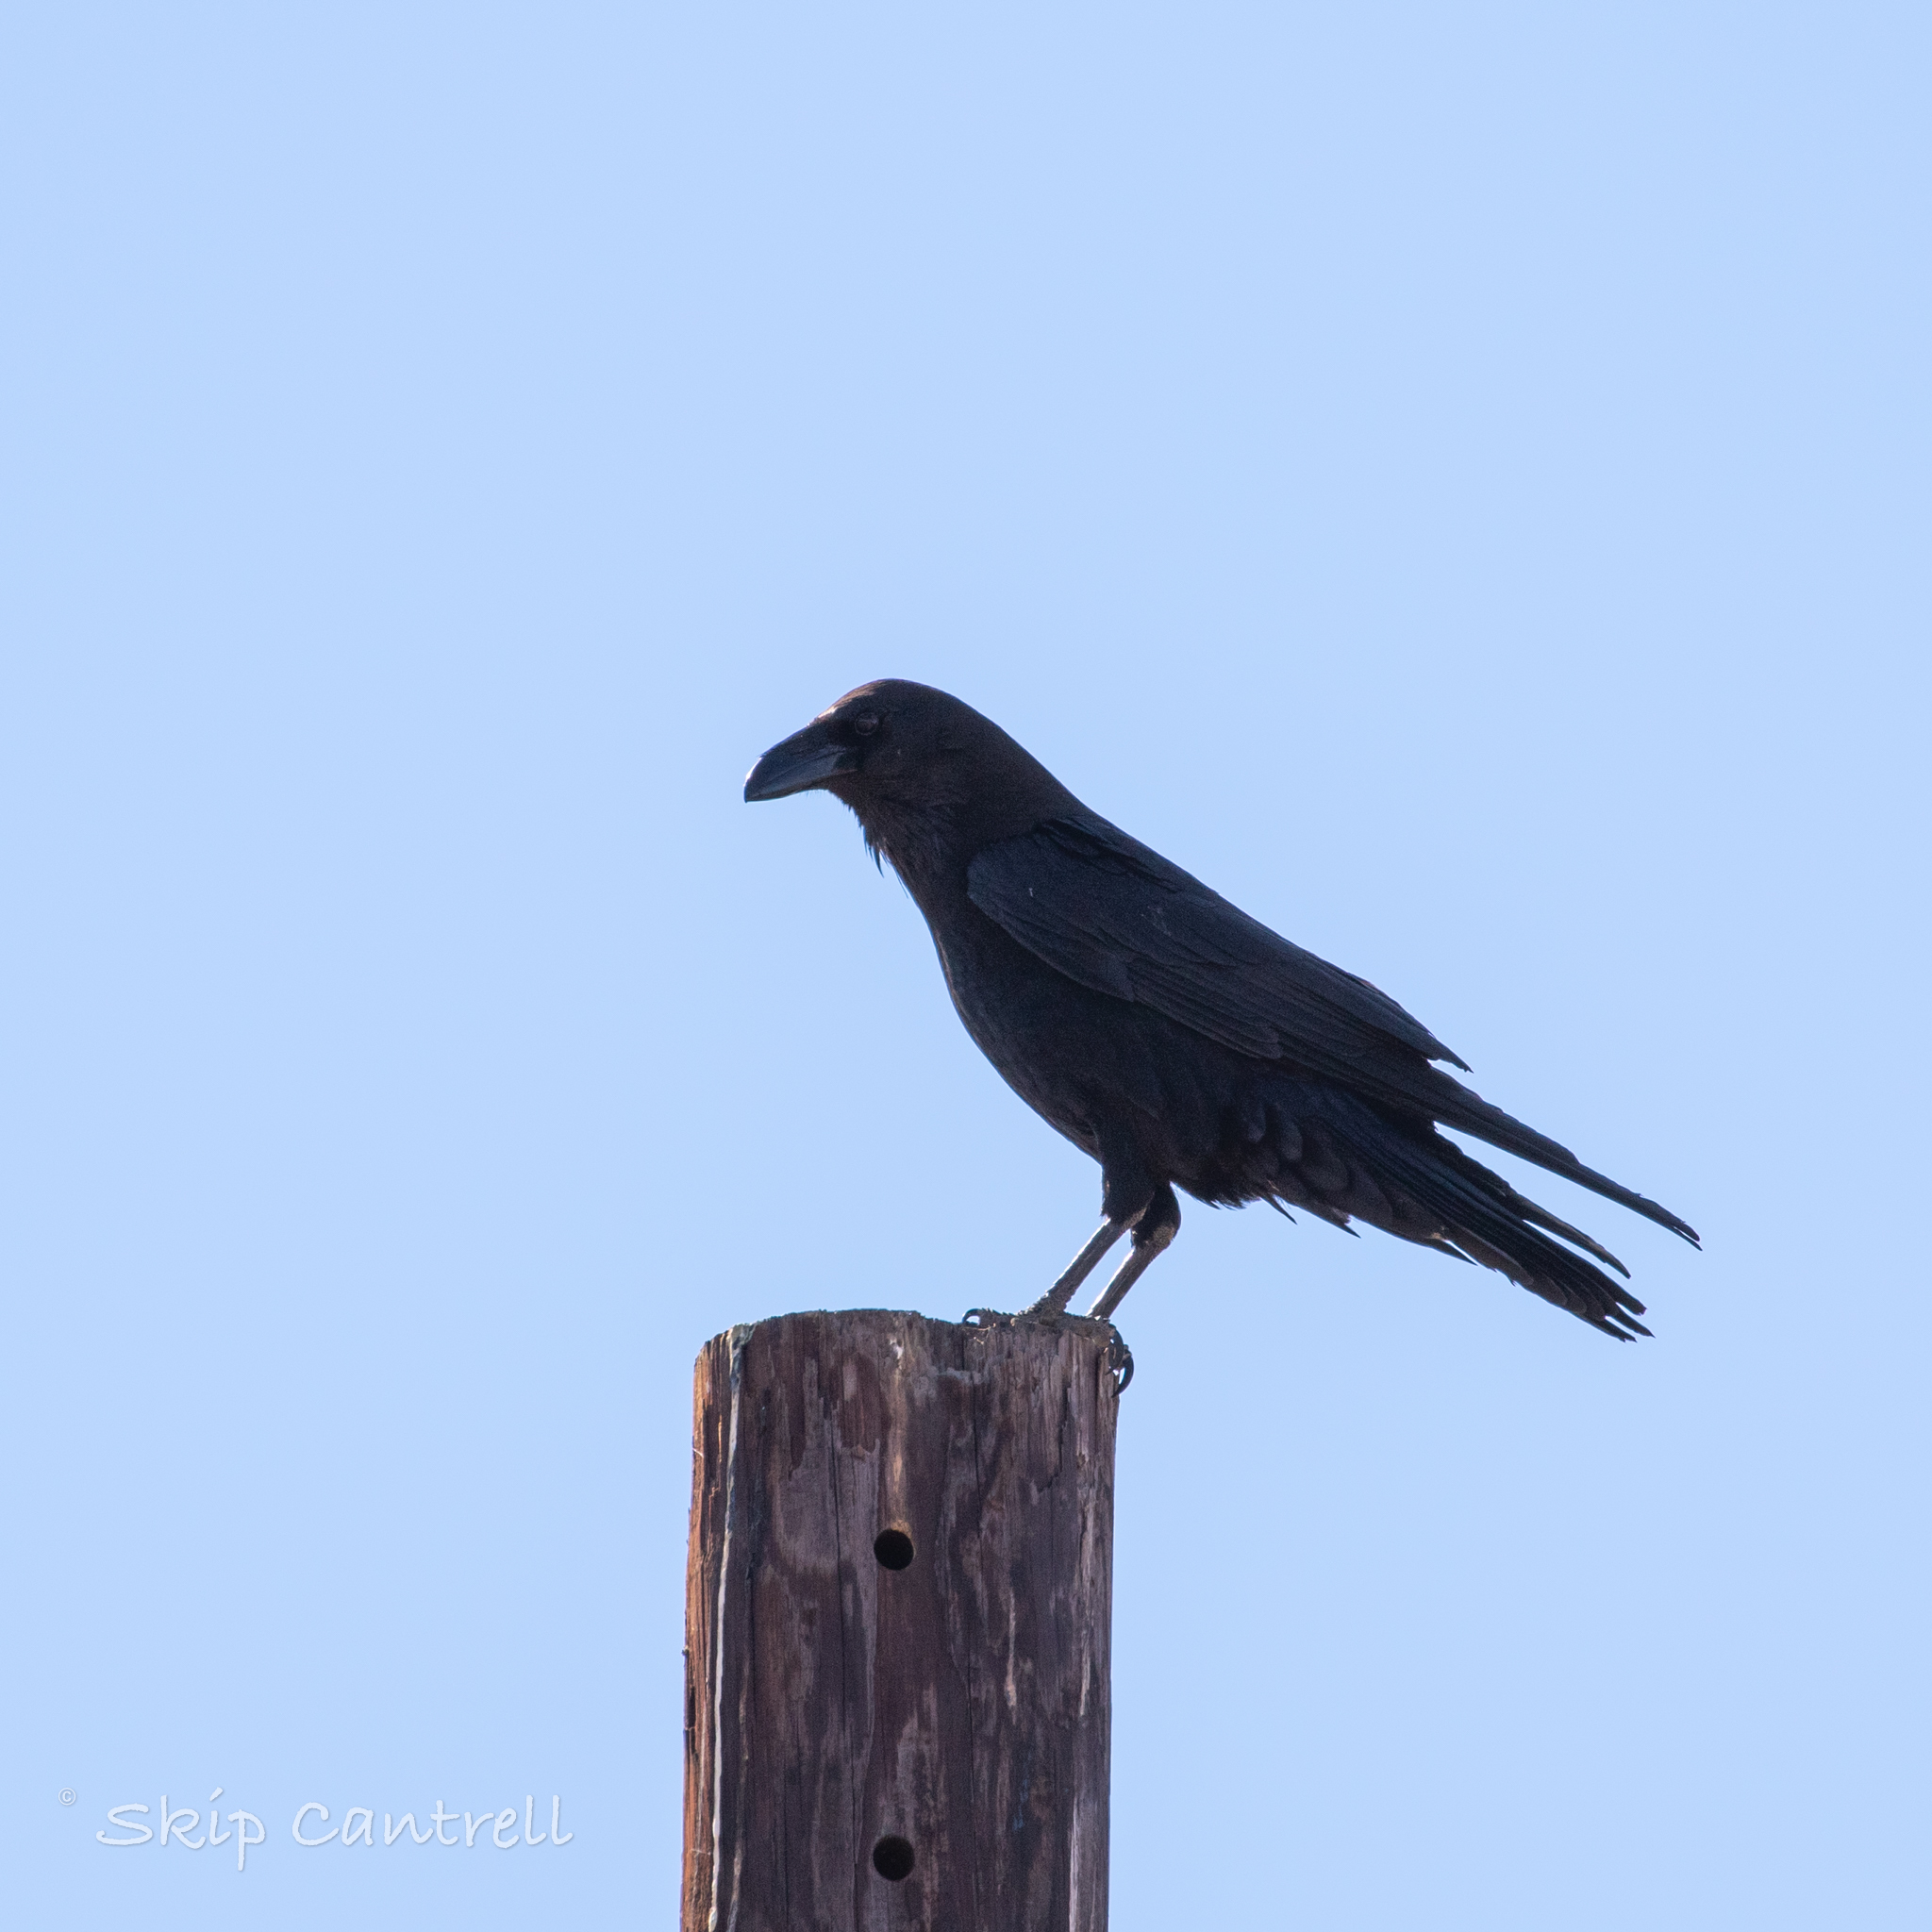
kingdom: Animalia
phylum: Chordata
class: Aves
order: Passeriformes
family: Corvidae
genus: Corvus
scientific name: Corvus cryptoleucus
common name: Chihuahuan raven
